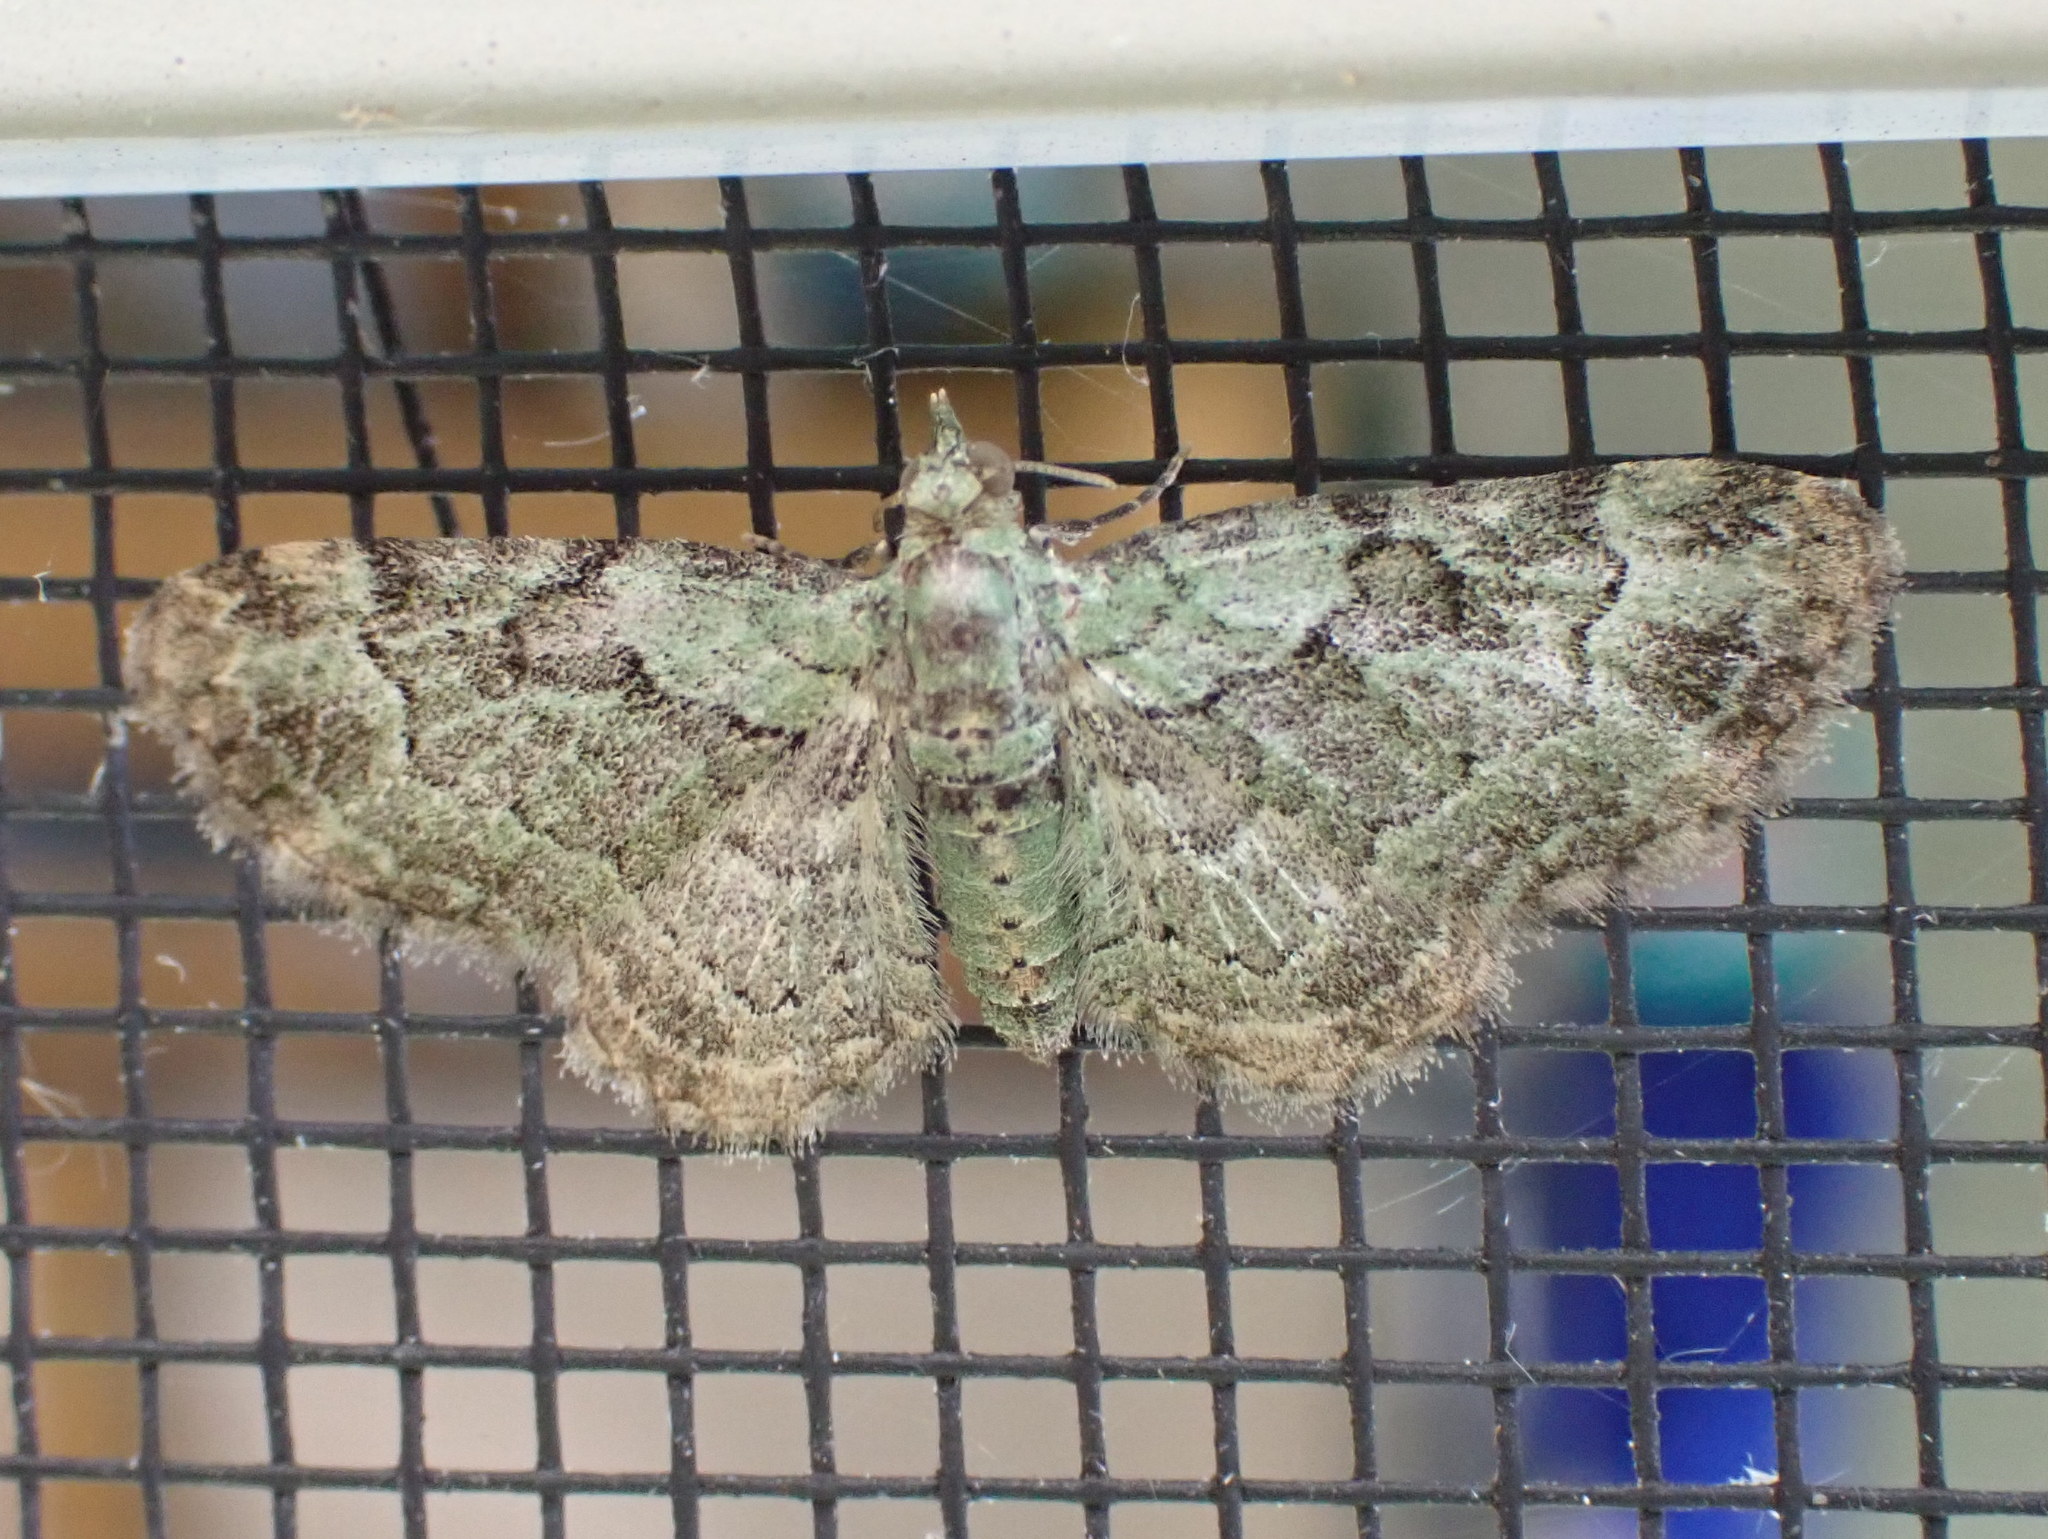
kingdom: Animalia
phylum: Arthropoda
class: Insecta
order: Lepidoptera
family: Geometridae
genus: Pasiphila
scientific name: Pasiphila rectangulata
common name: Green pug
